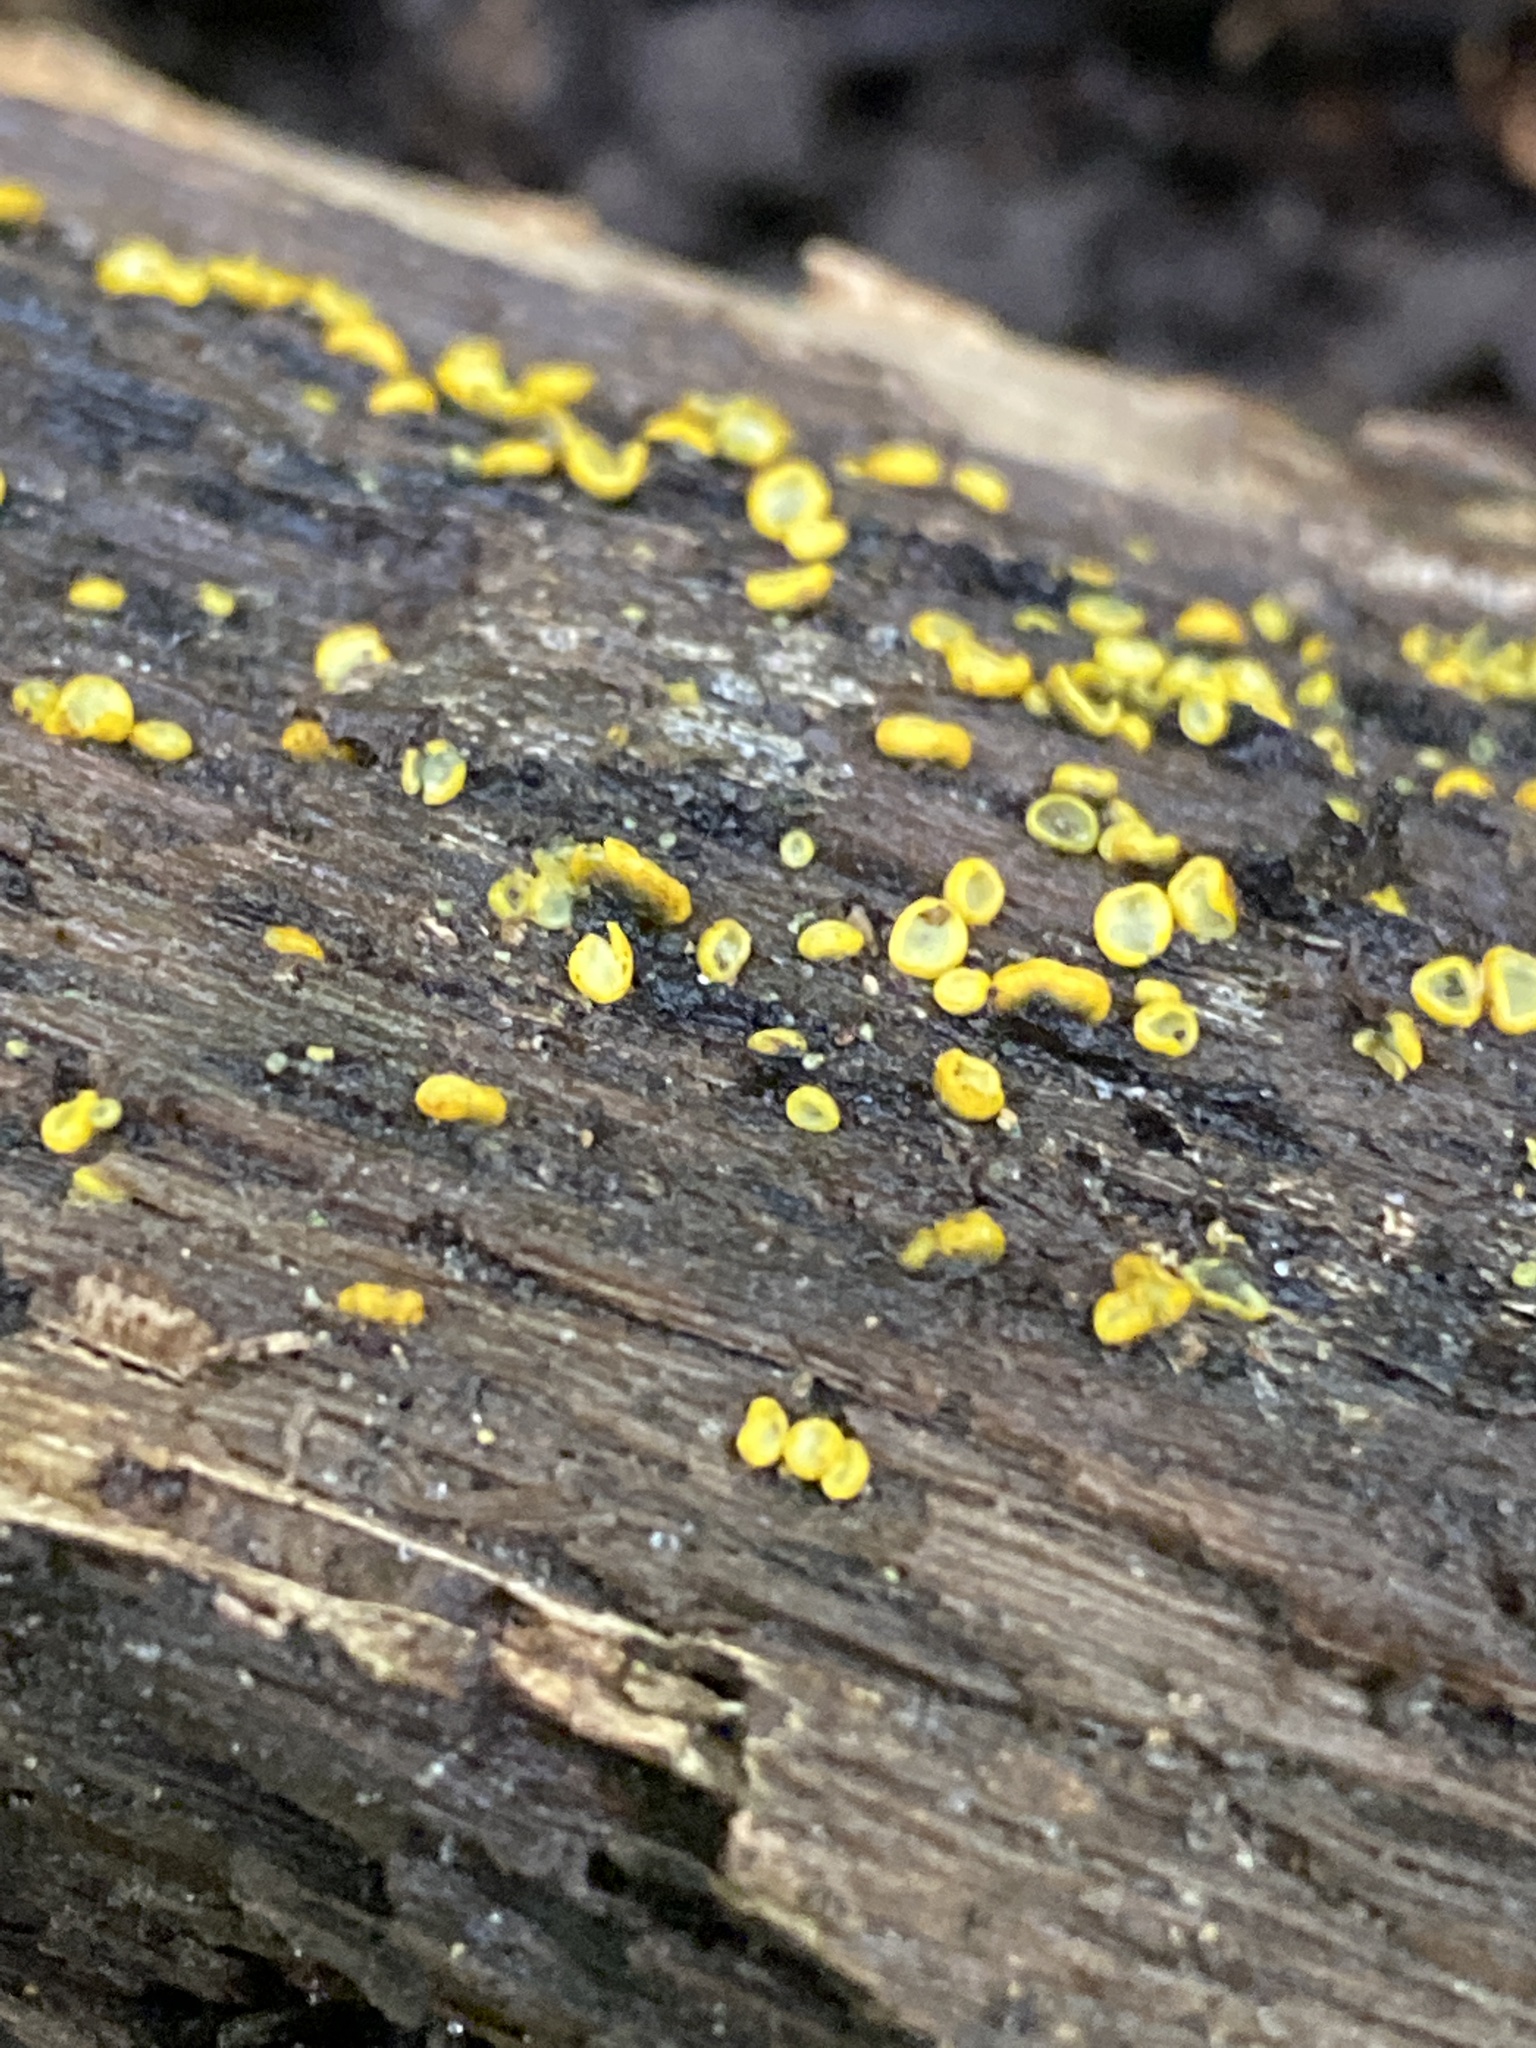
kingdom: Fungi
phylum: Ascomycota
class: Leotiomycetes
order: Helotiales
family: Chlorospleniaceae
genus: Chlorosplenium
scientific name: Chlorosplenium chlora
